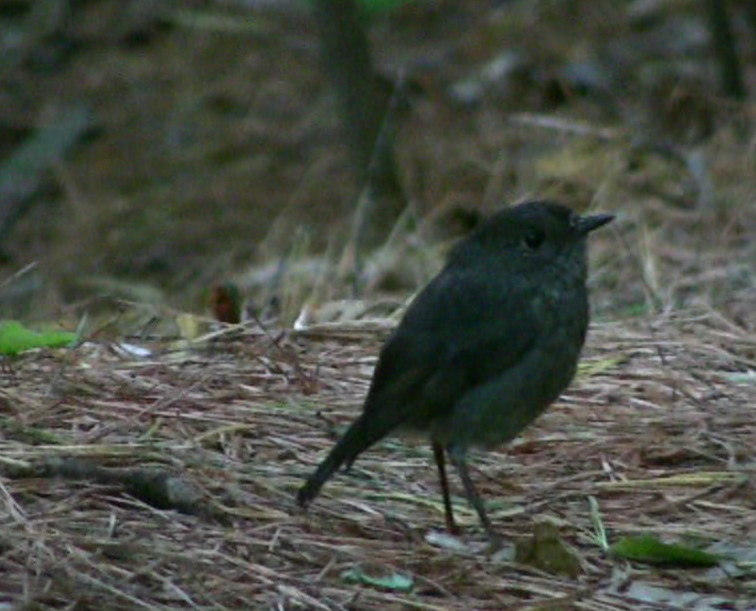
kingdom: Animalia
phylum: Chordata
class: Aves
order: Passeriformes
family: Petroicidae
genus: Petroica
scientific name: Petroica australis
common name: New zealand robin
